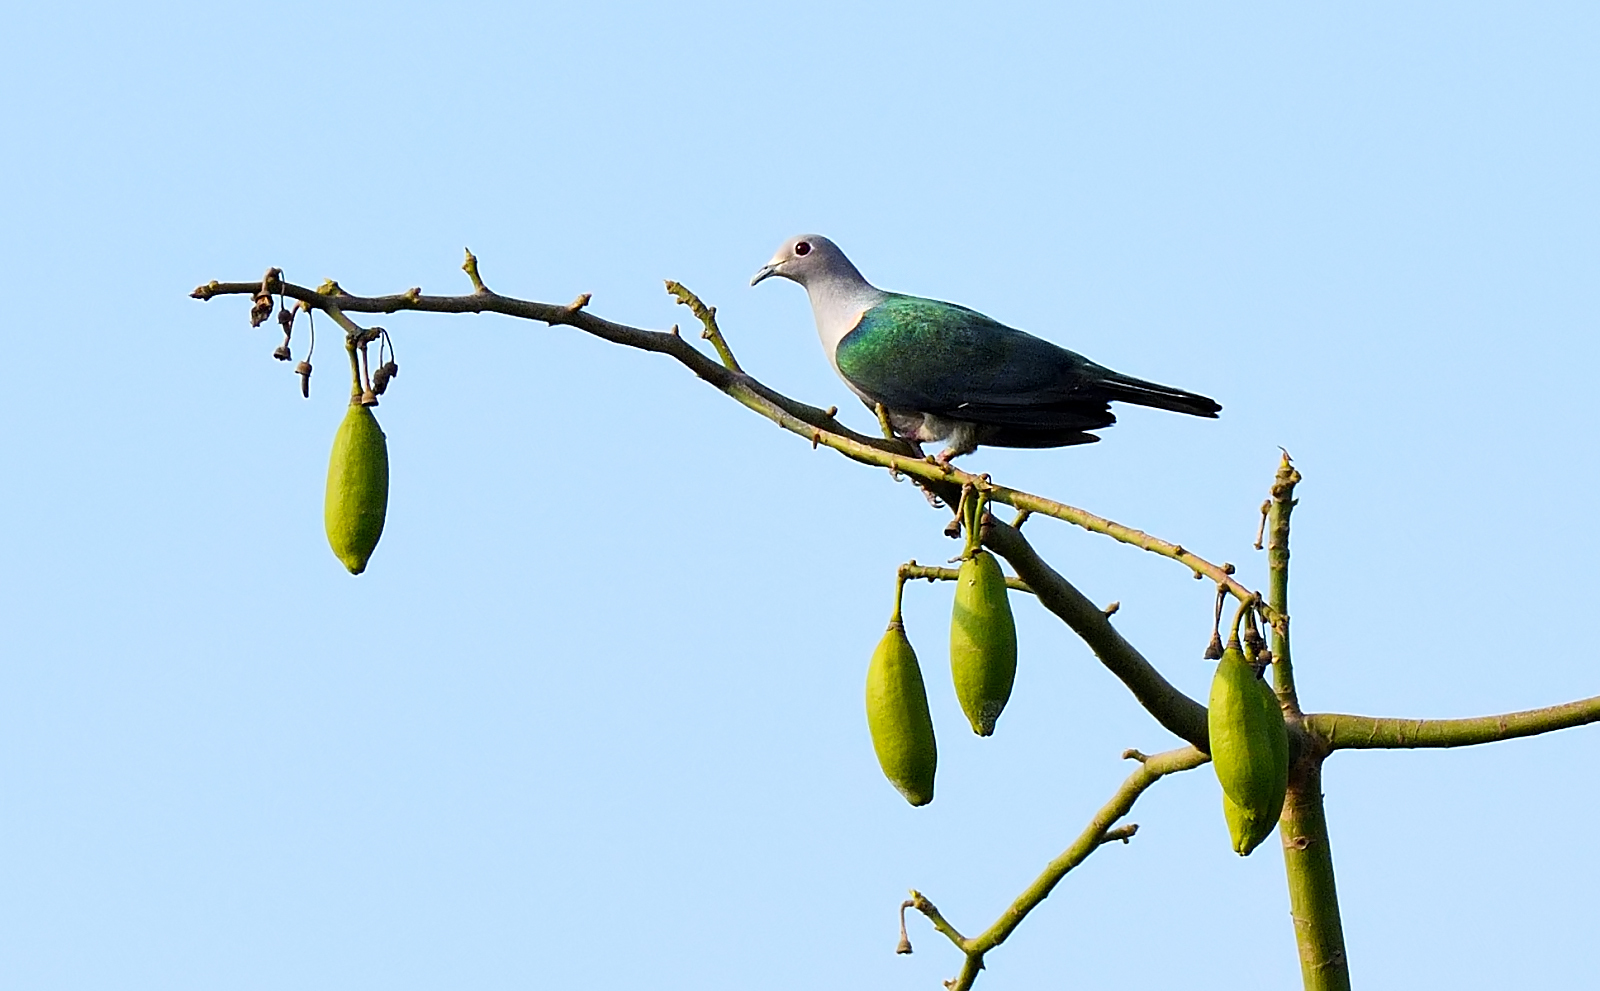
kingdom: Animalia
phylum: Chordata
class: Aves
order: Columbiformes
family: Columbidae
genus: Ducula
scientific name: Ducula aenea
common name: Green imperial pigeon
